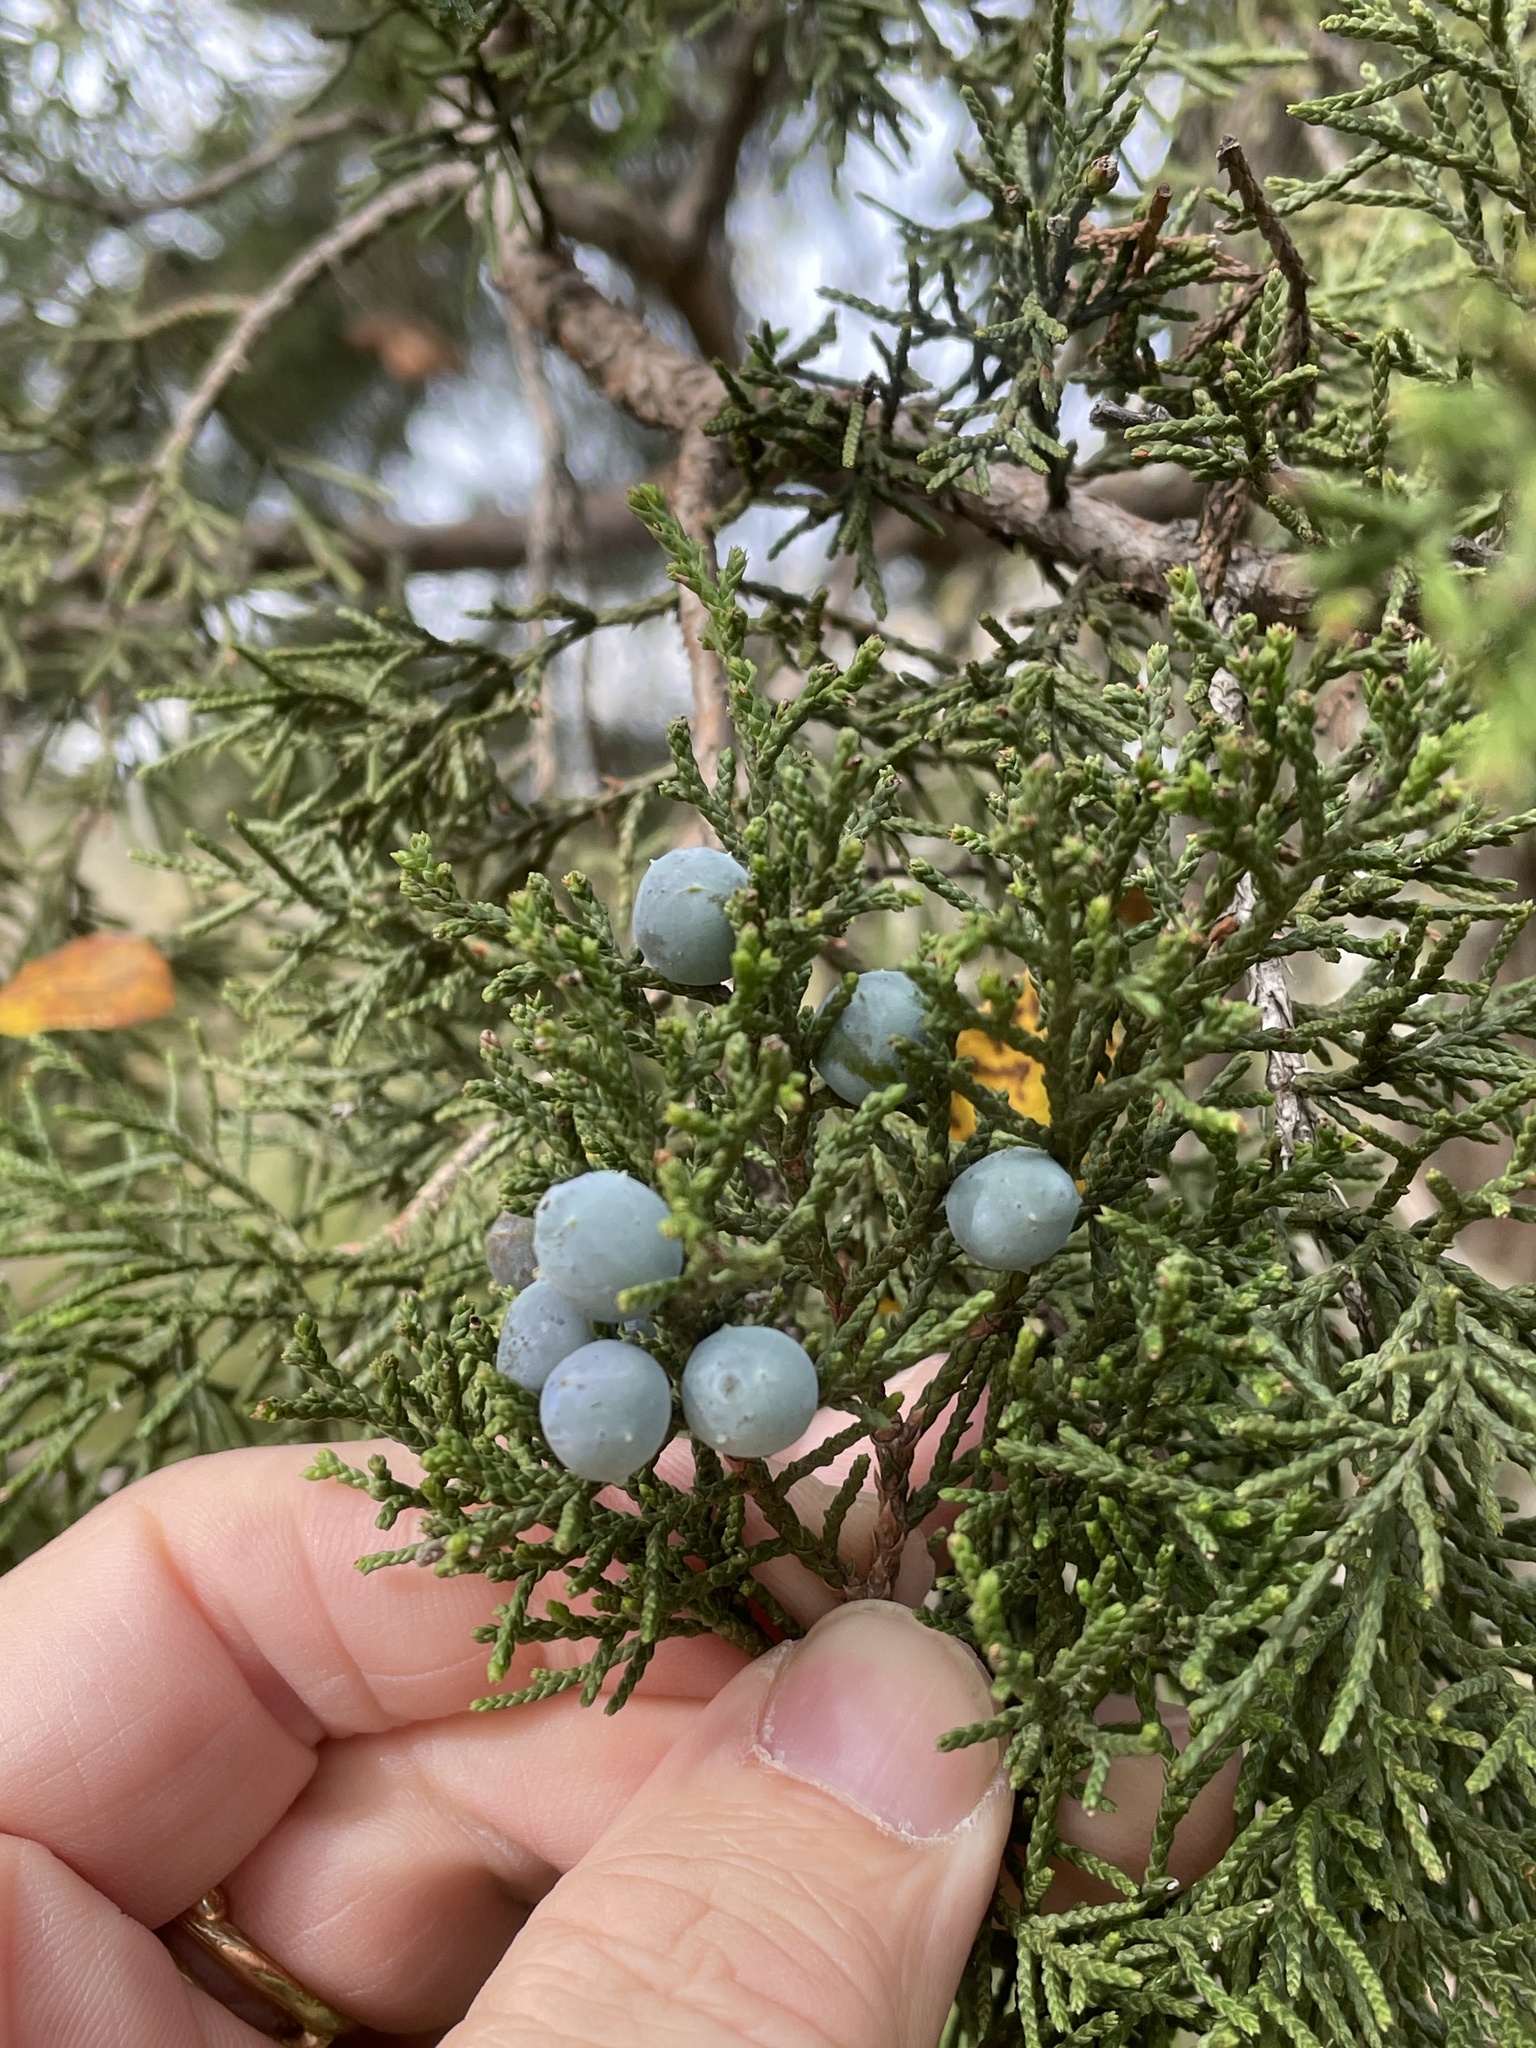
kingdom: Plantae
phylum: Tracheophyta
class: Pinopsida
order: Pinales
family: Cupressaceae
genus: Juniperus
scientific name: Juniperus ashei
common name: Mexican juniper
